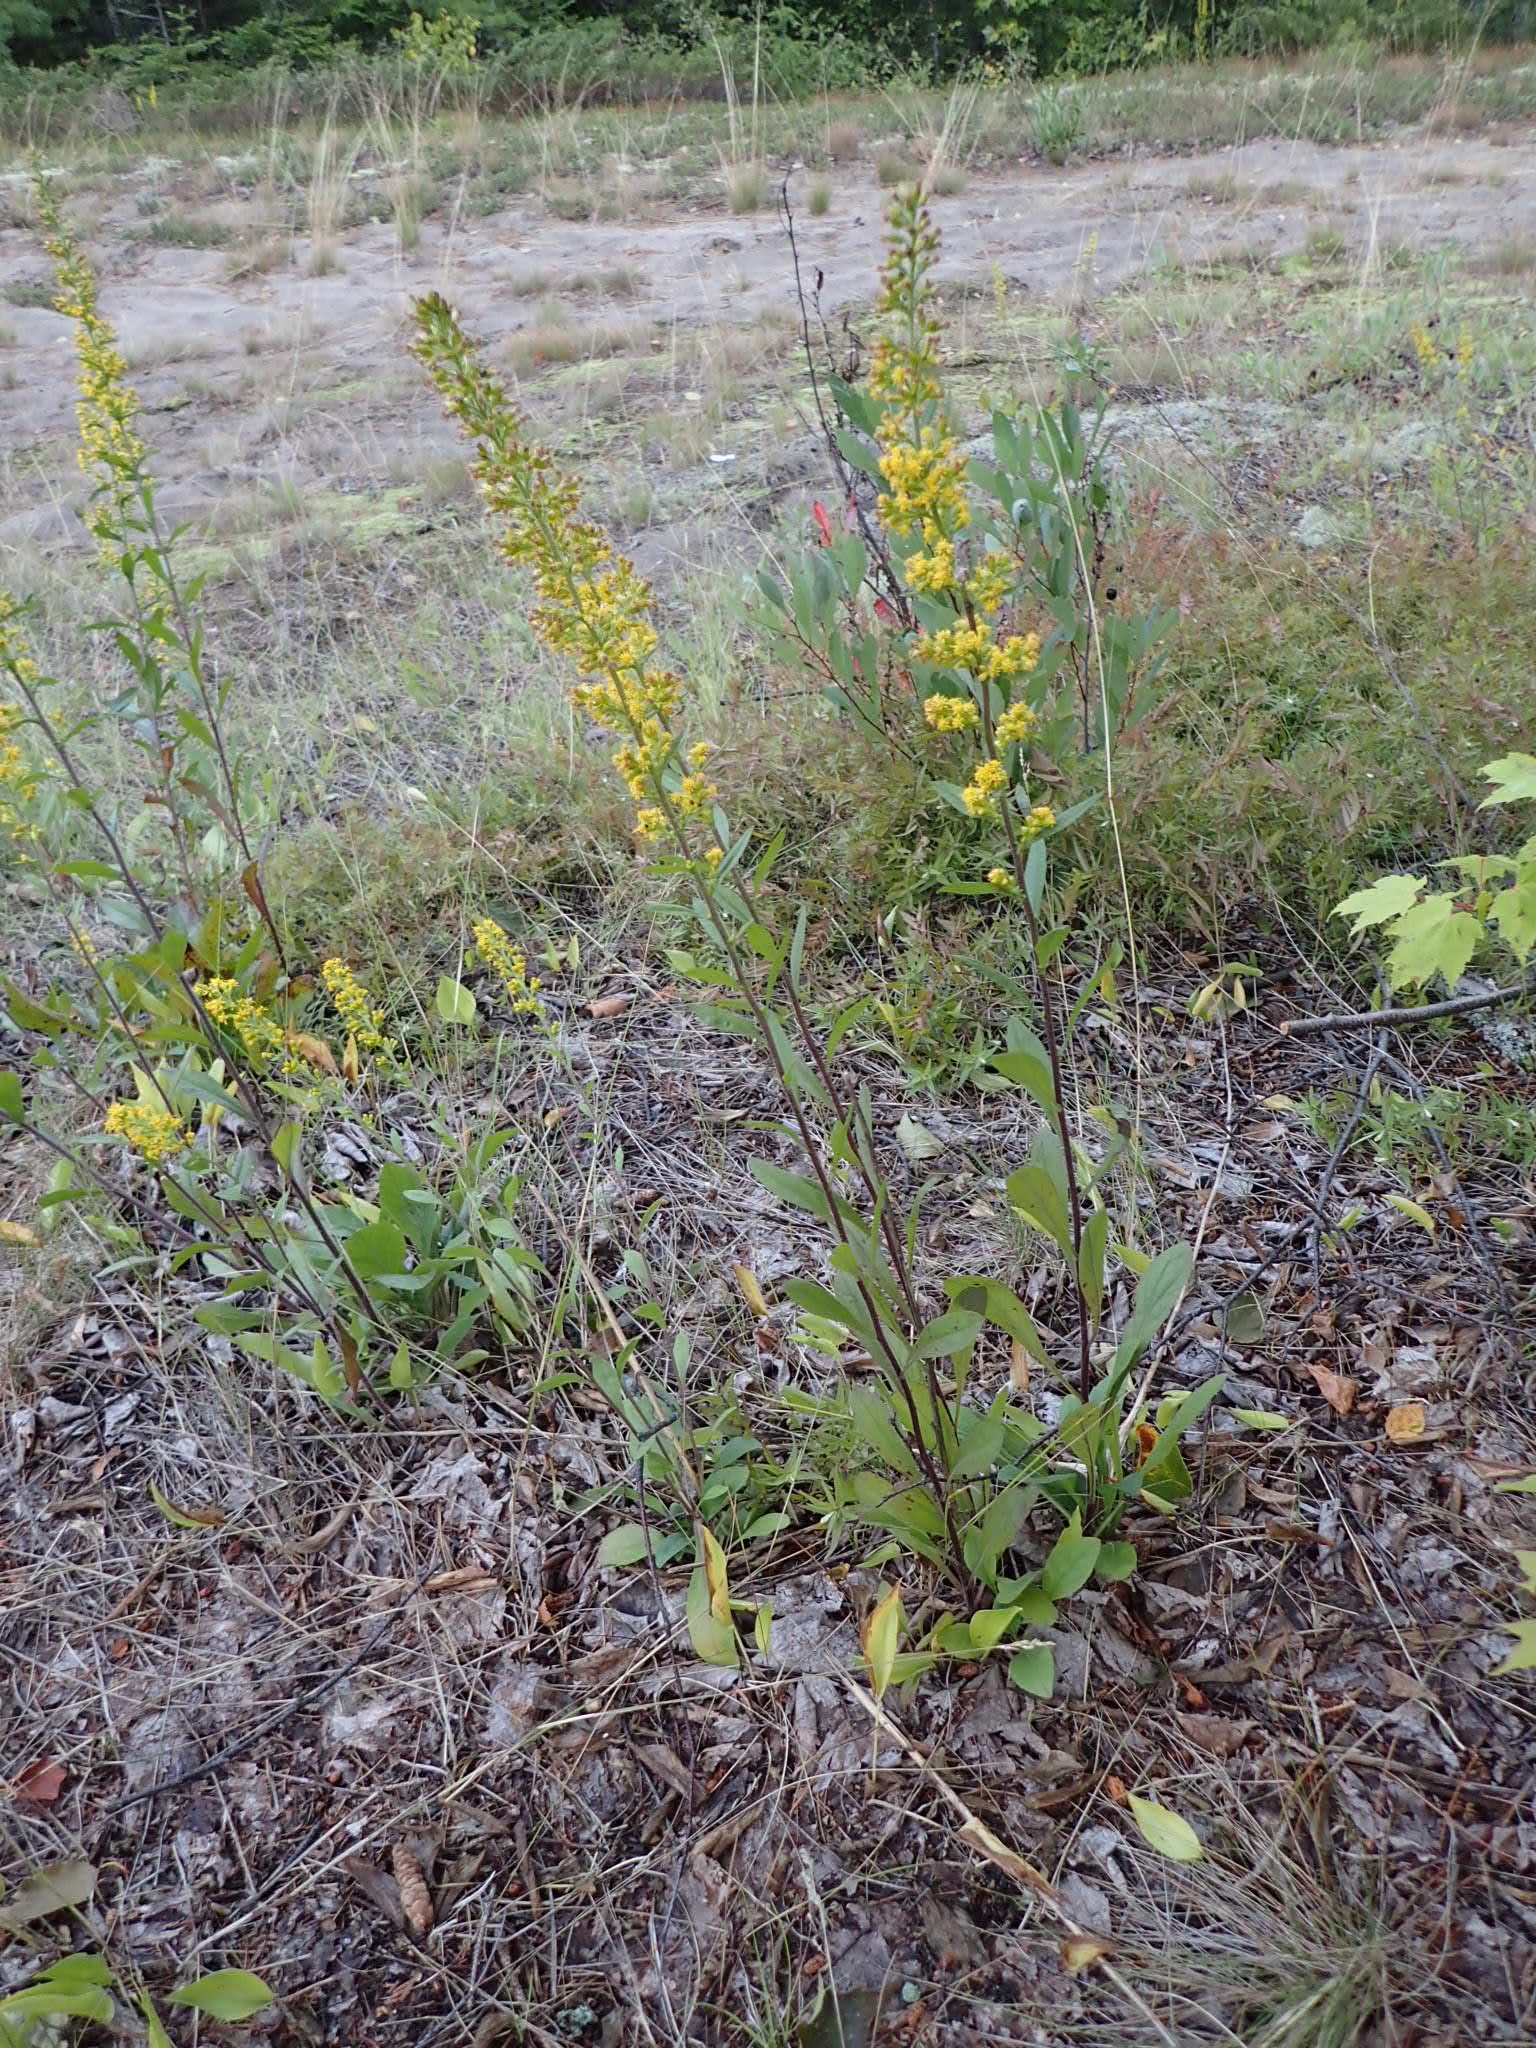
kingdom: Plantae
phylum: Tracheophyta
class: Magnoliopsida
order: Asterales
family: Asteraceae
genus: Solidago
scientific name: Solidago hispida
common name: Hairy goldenrod
